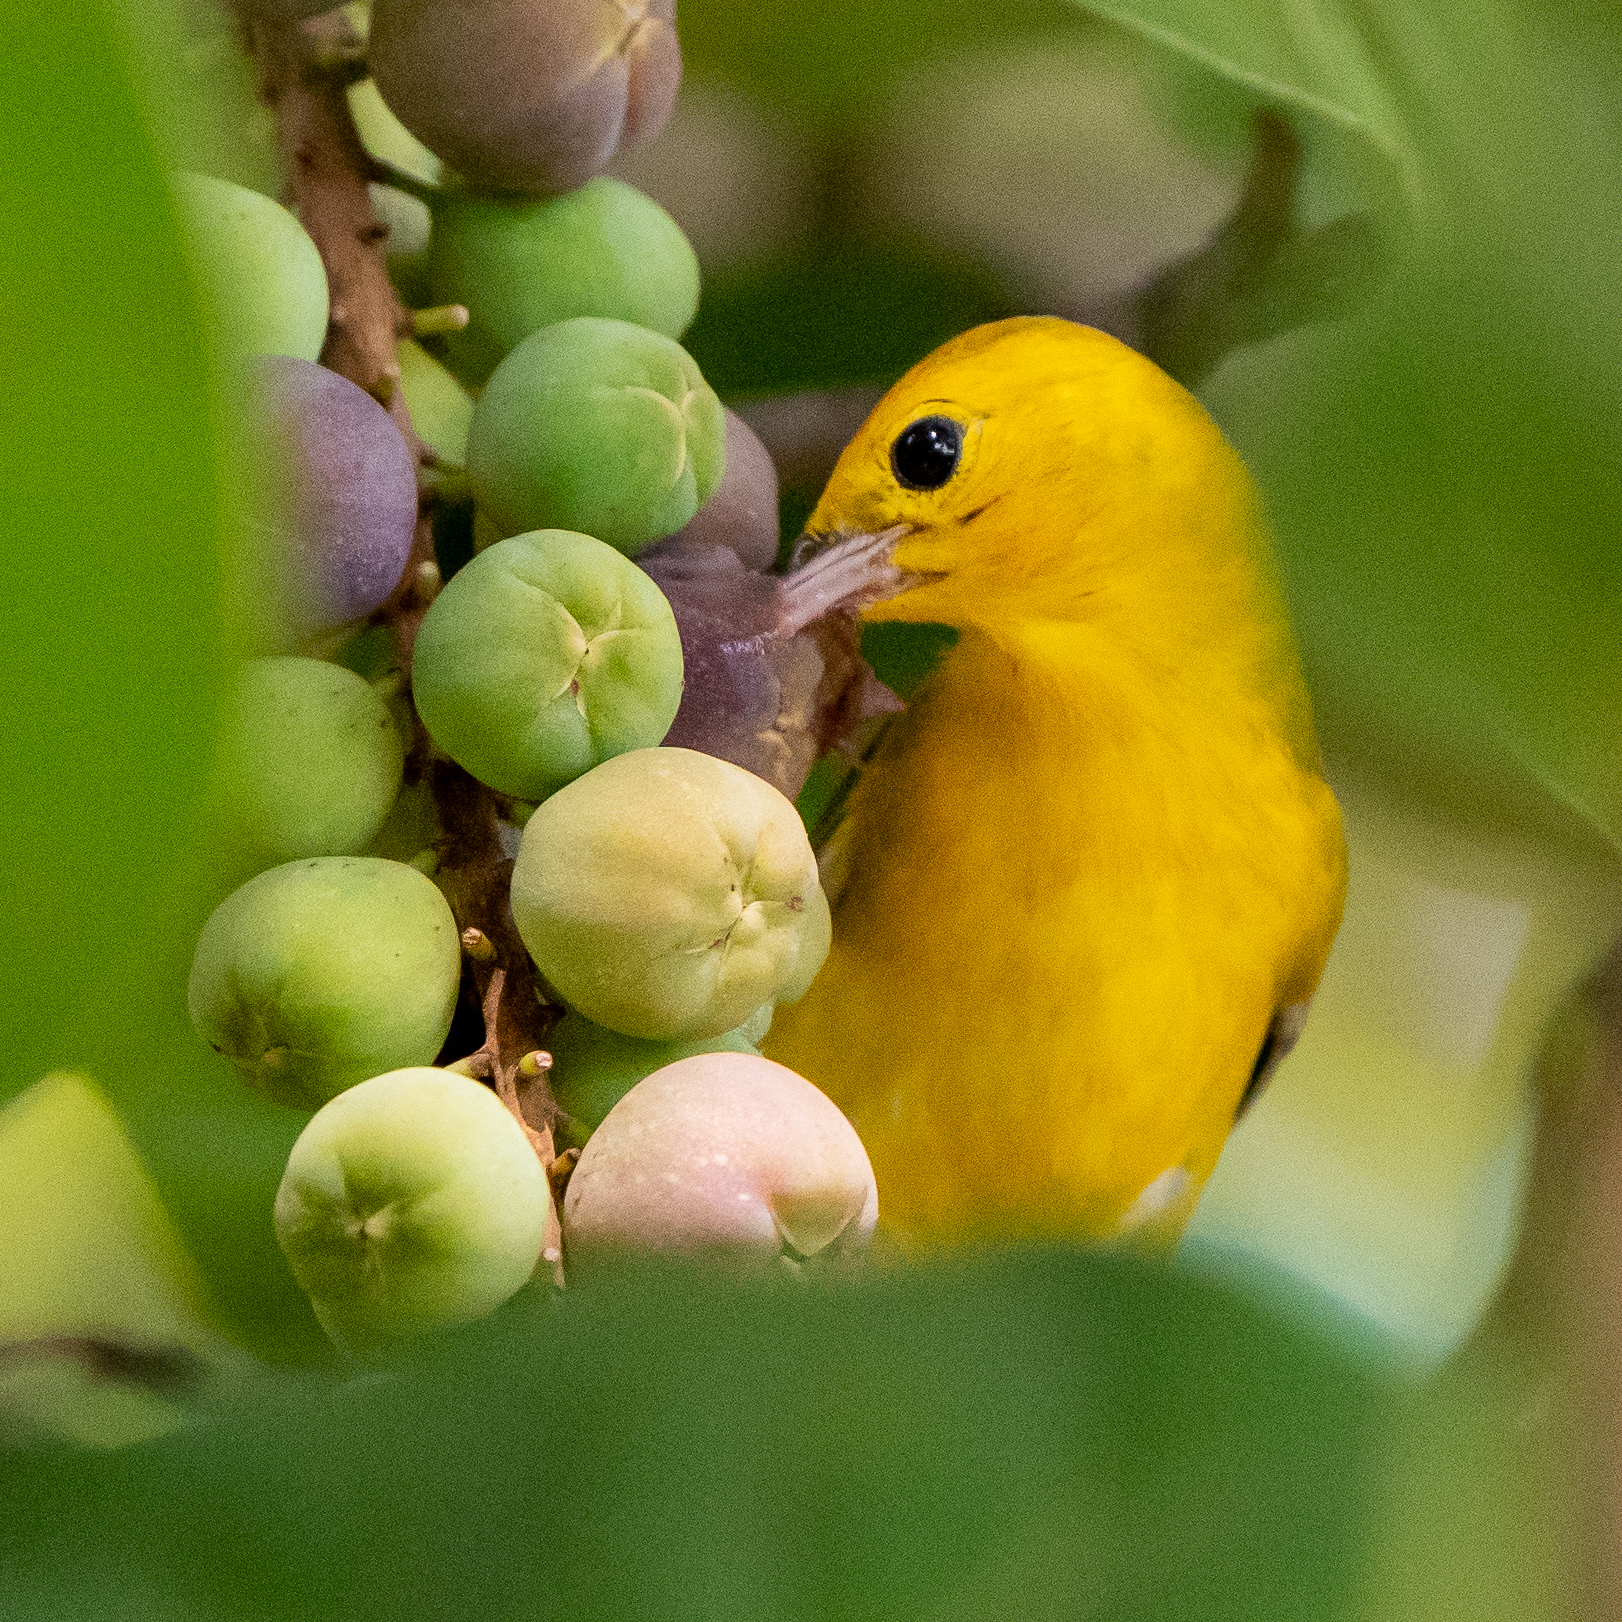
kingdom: Animalia
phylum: Chordata
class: Aves
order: Passeriformes
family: Parulidae
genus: Protonotaria
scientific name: Protonotaria citrea
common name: Prothonotary warbler
